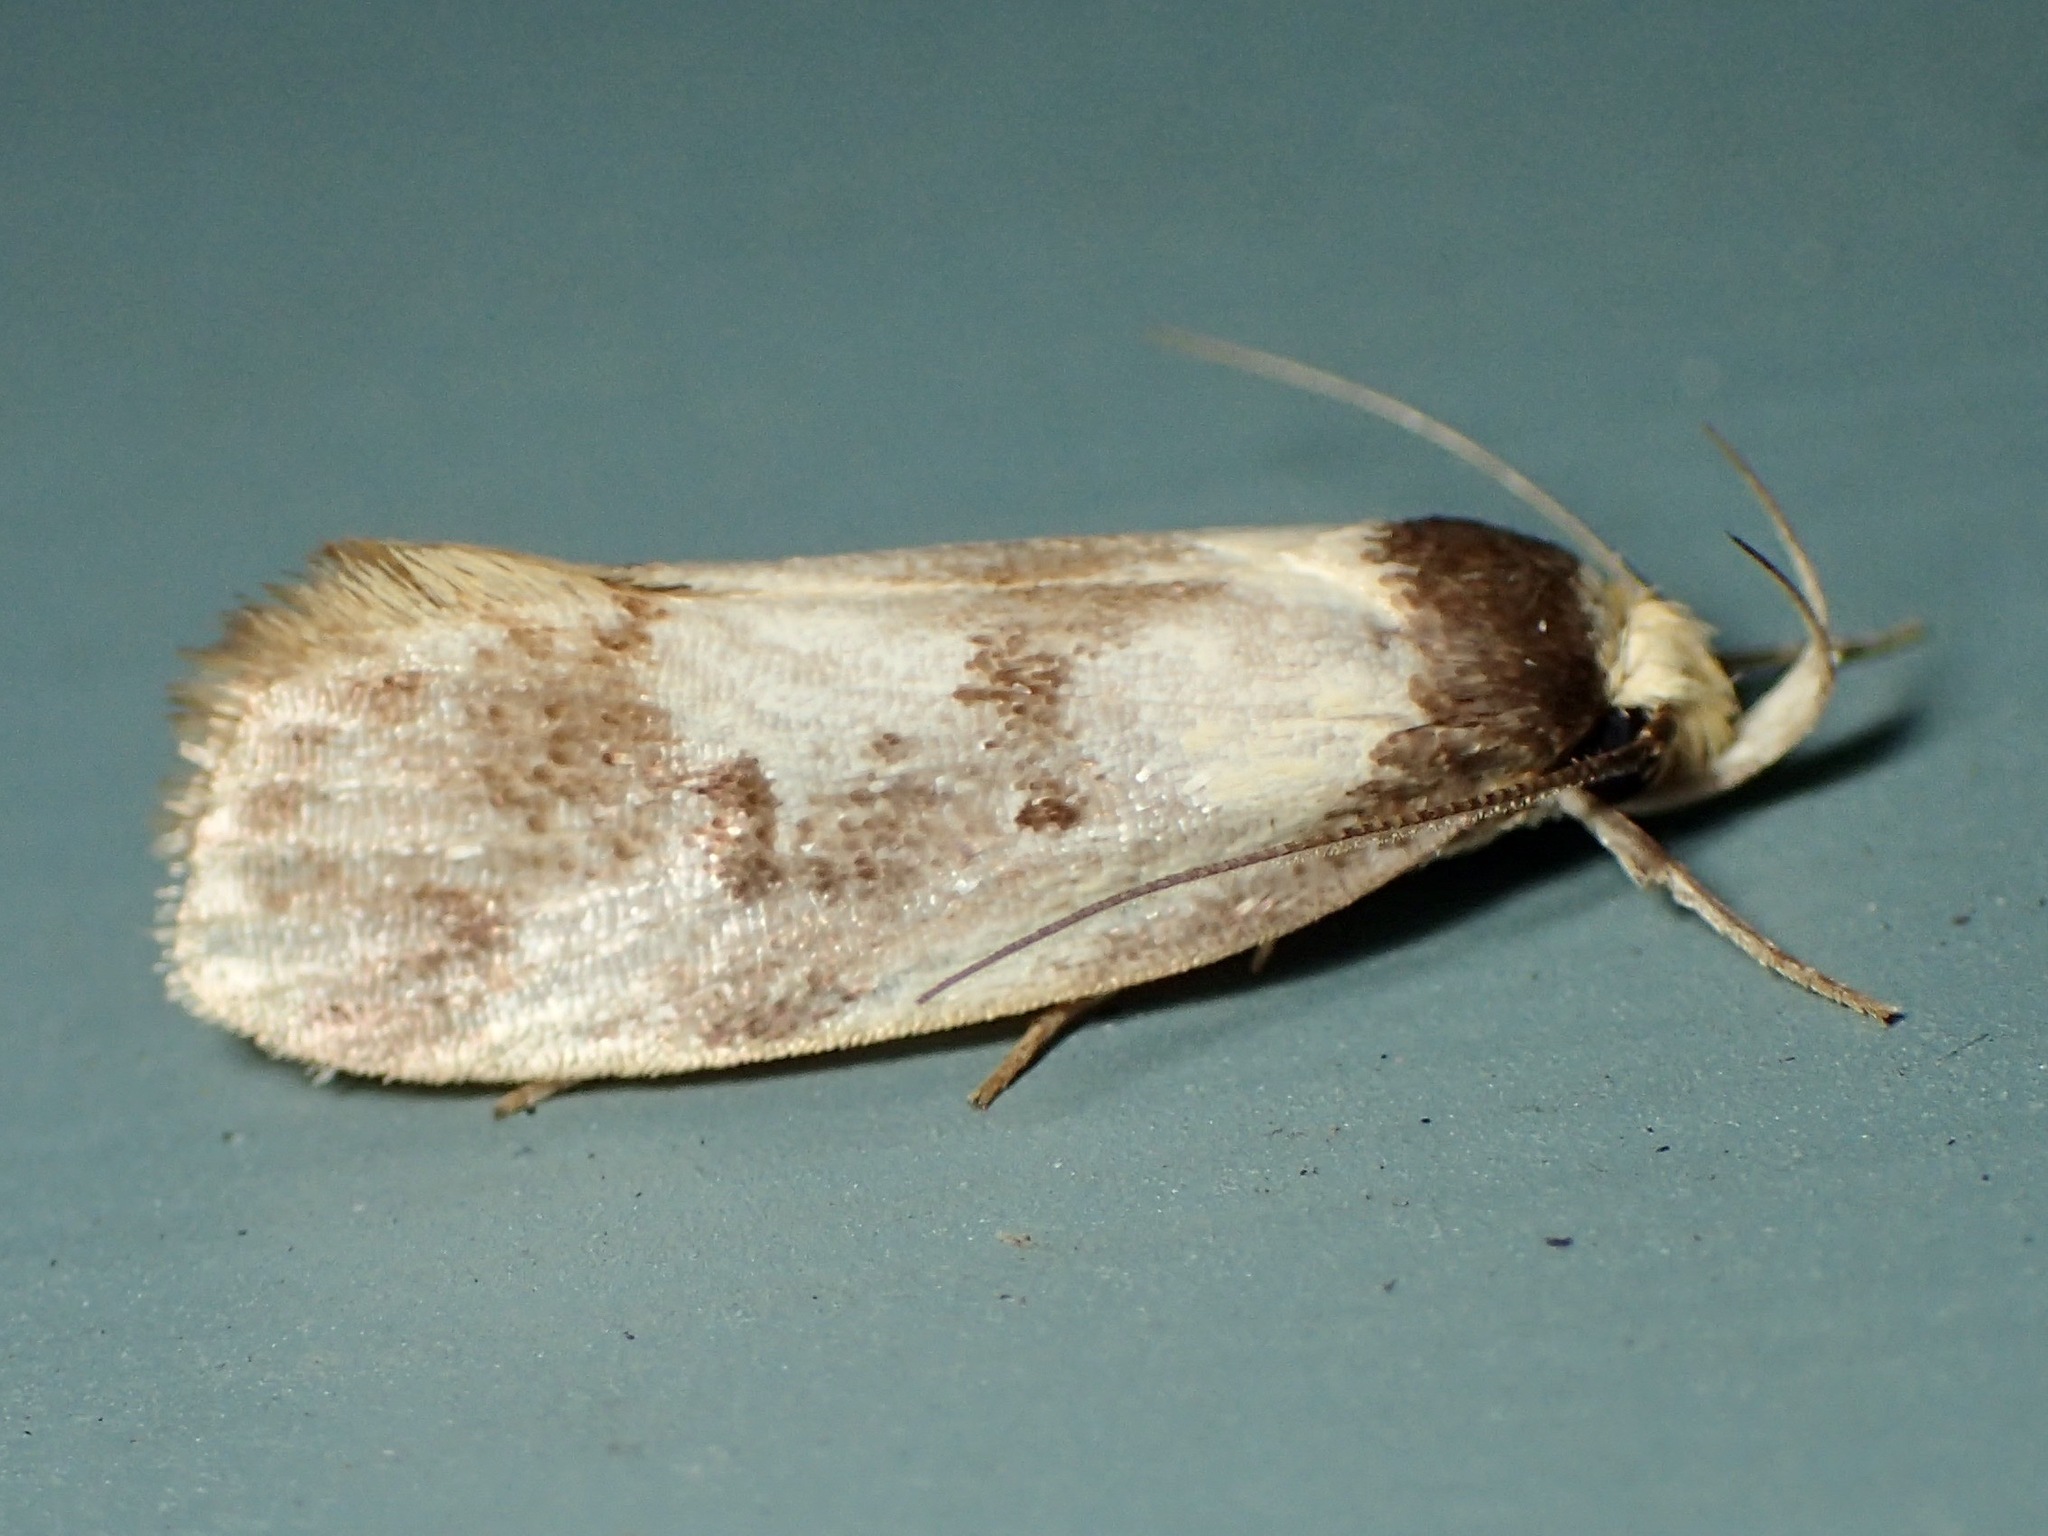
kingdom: Animalia
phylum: Arthropoda
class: Insecta
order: Lepidoptera
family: Oecophoridae
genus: Eulechria
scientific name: Eulechria marmorata
